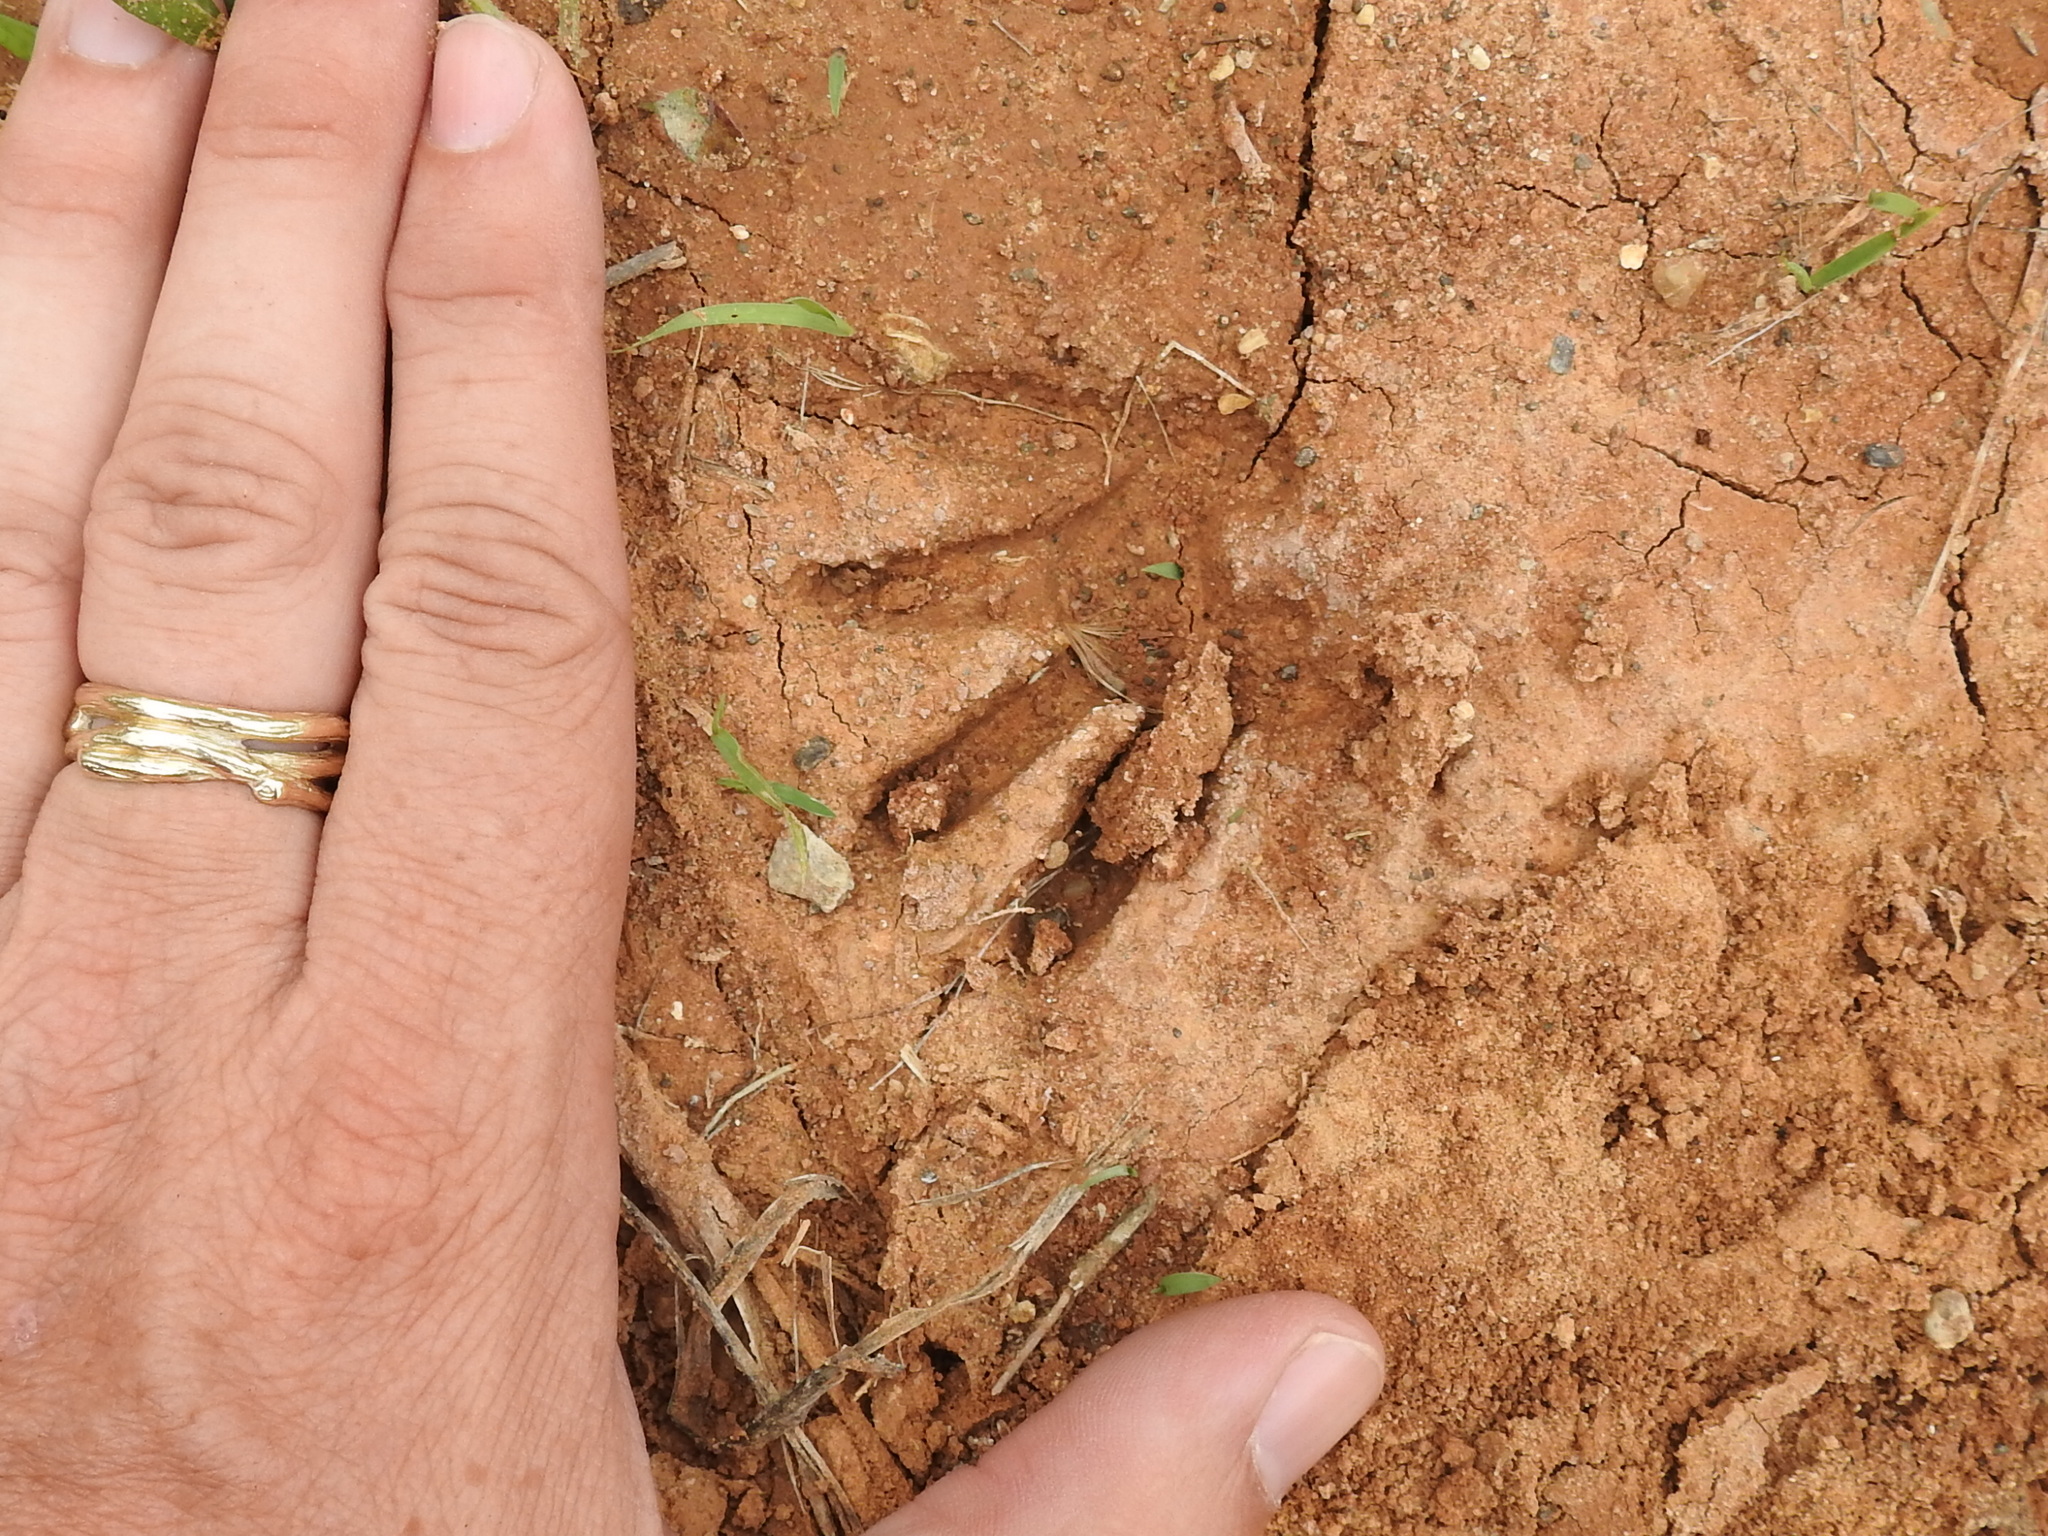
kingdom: Animalia
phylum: Chordata
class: Mammalia
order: Carnivora
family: Procyonidae
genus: Procyon
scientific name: Procyon lotor
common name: Raccoon
